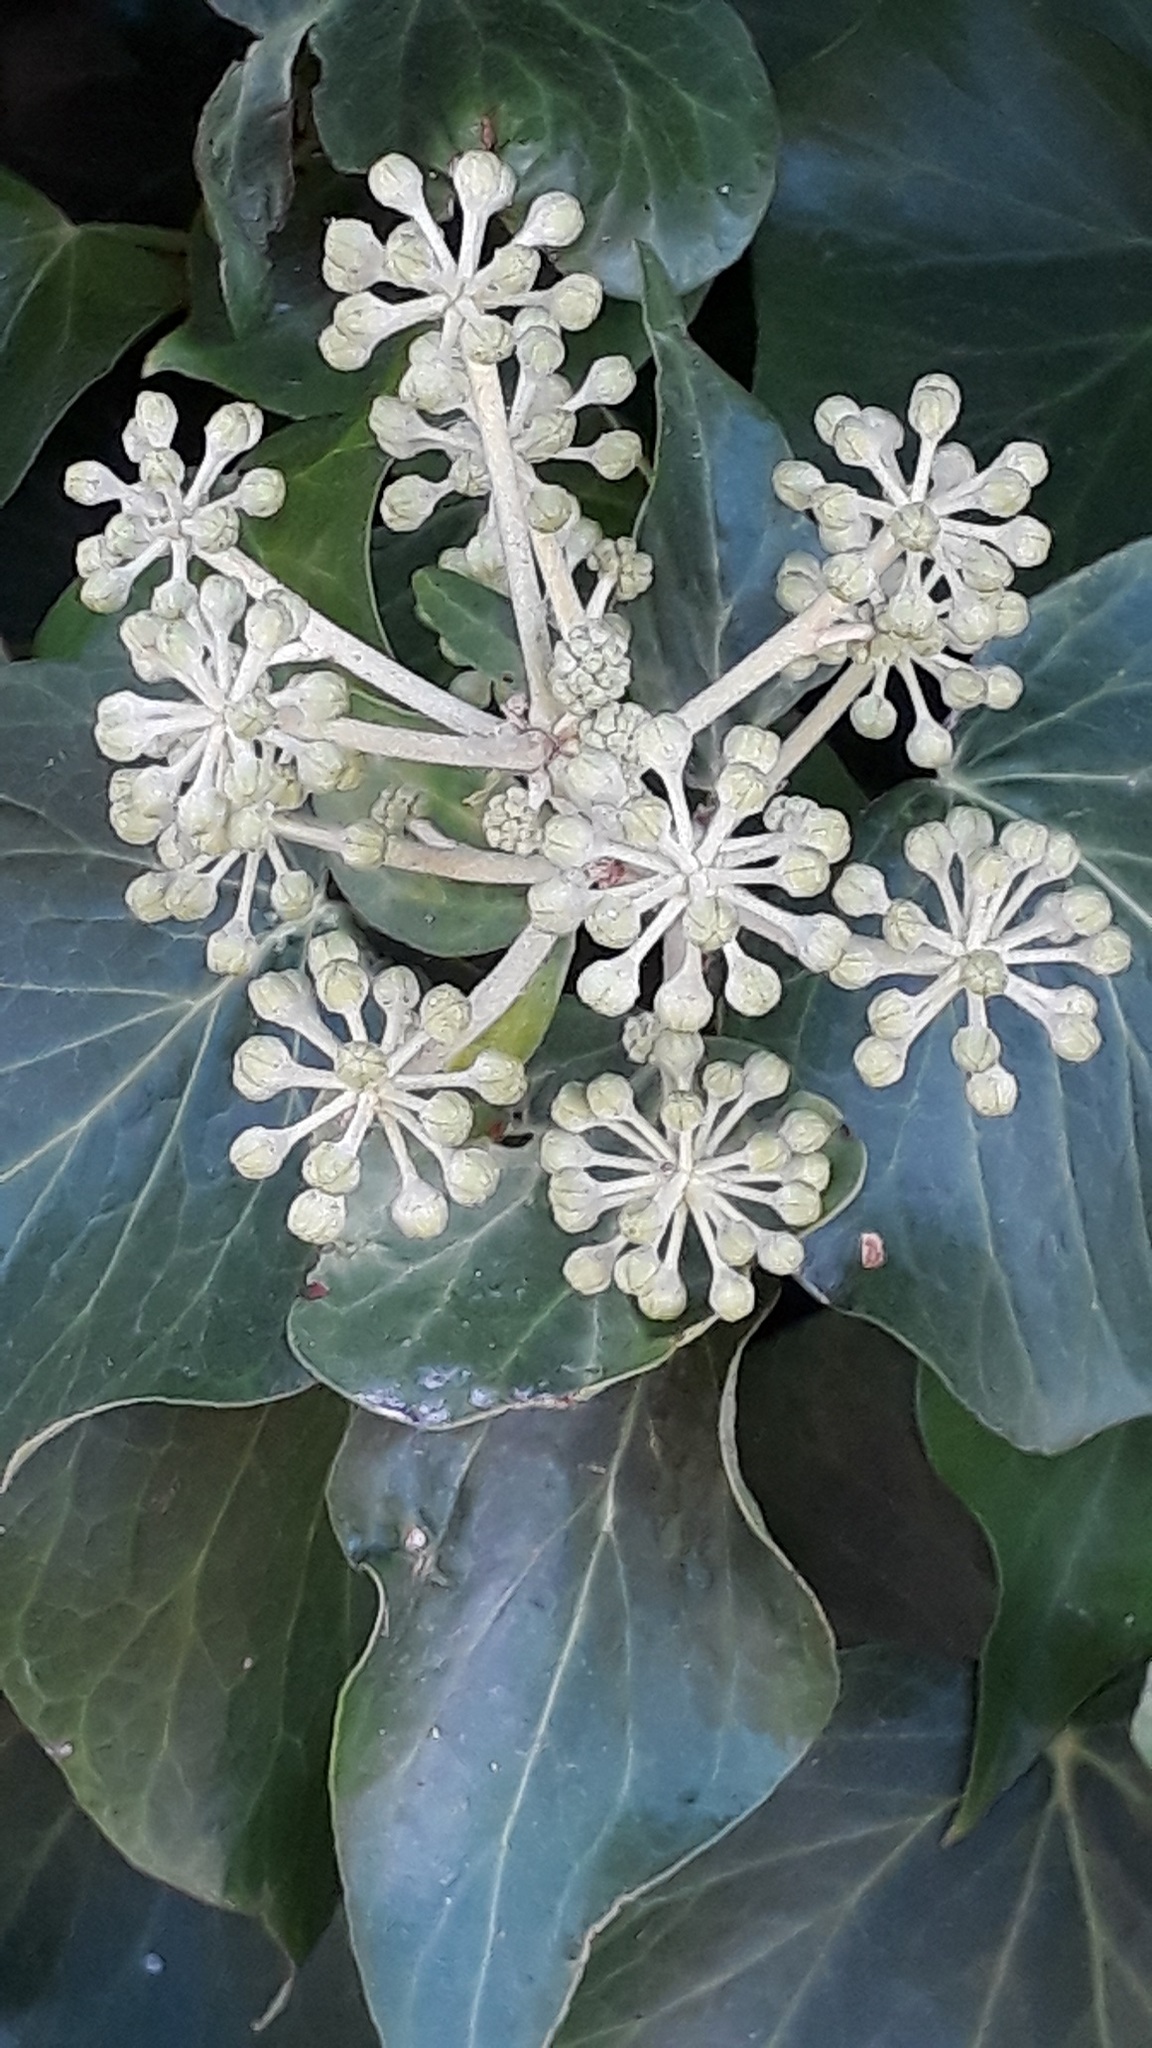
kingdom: Plantae
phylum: Tracheophyta
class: Magnoliopsida
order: Apiales
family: Araliaceae
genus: Hedera
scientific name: Hedera helix
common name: Ivy
